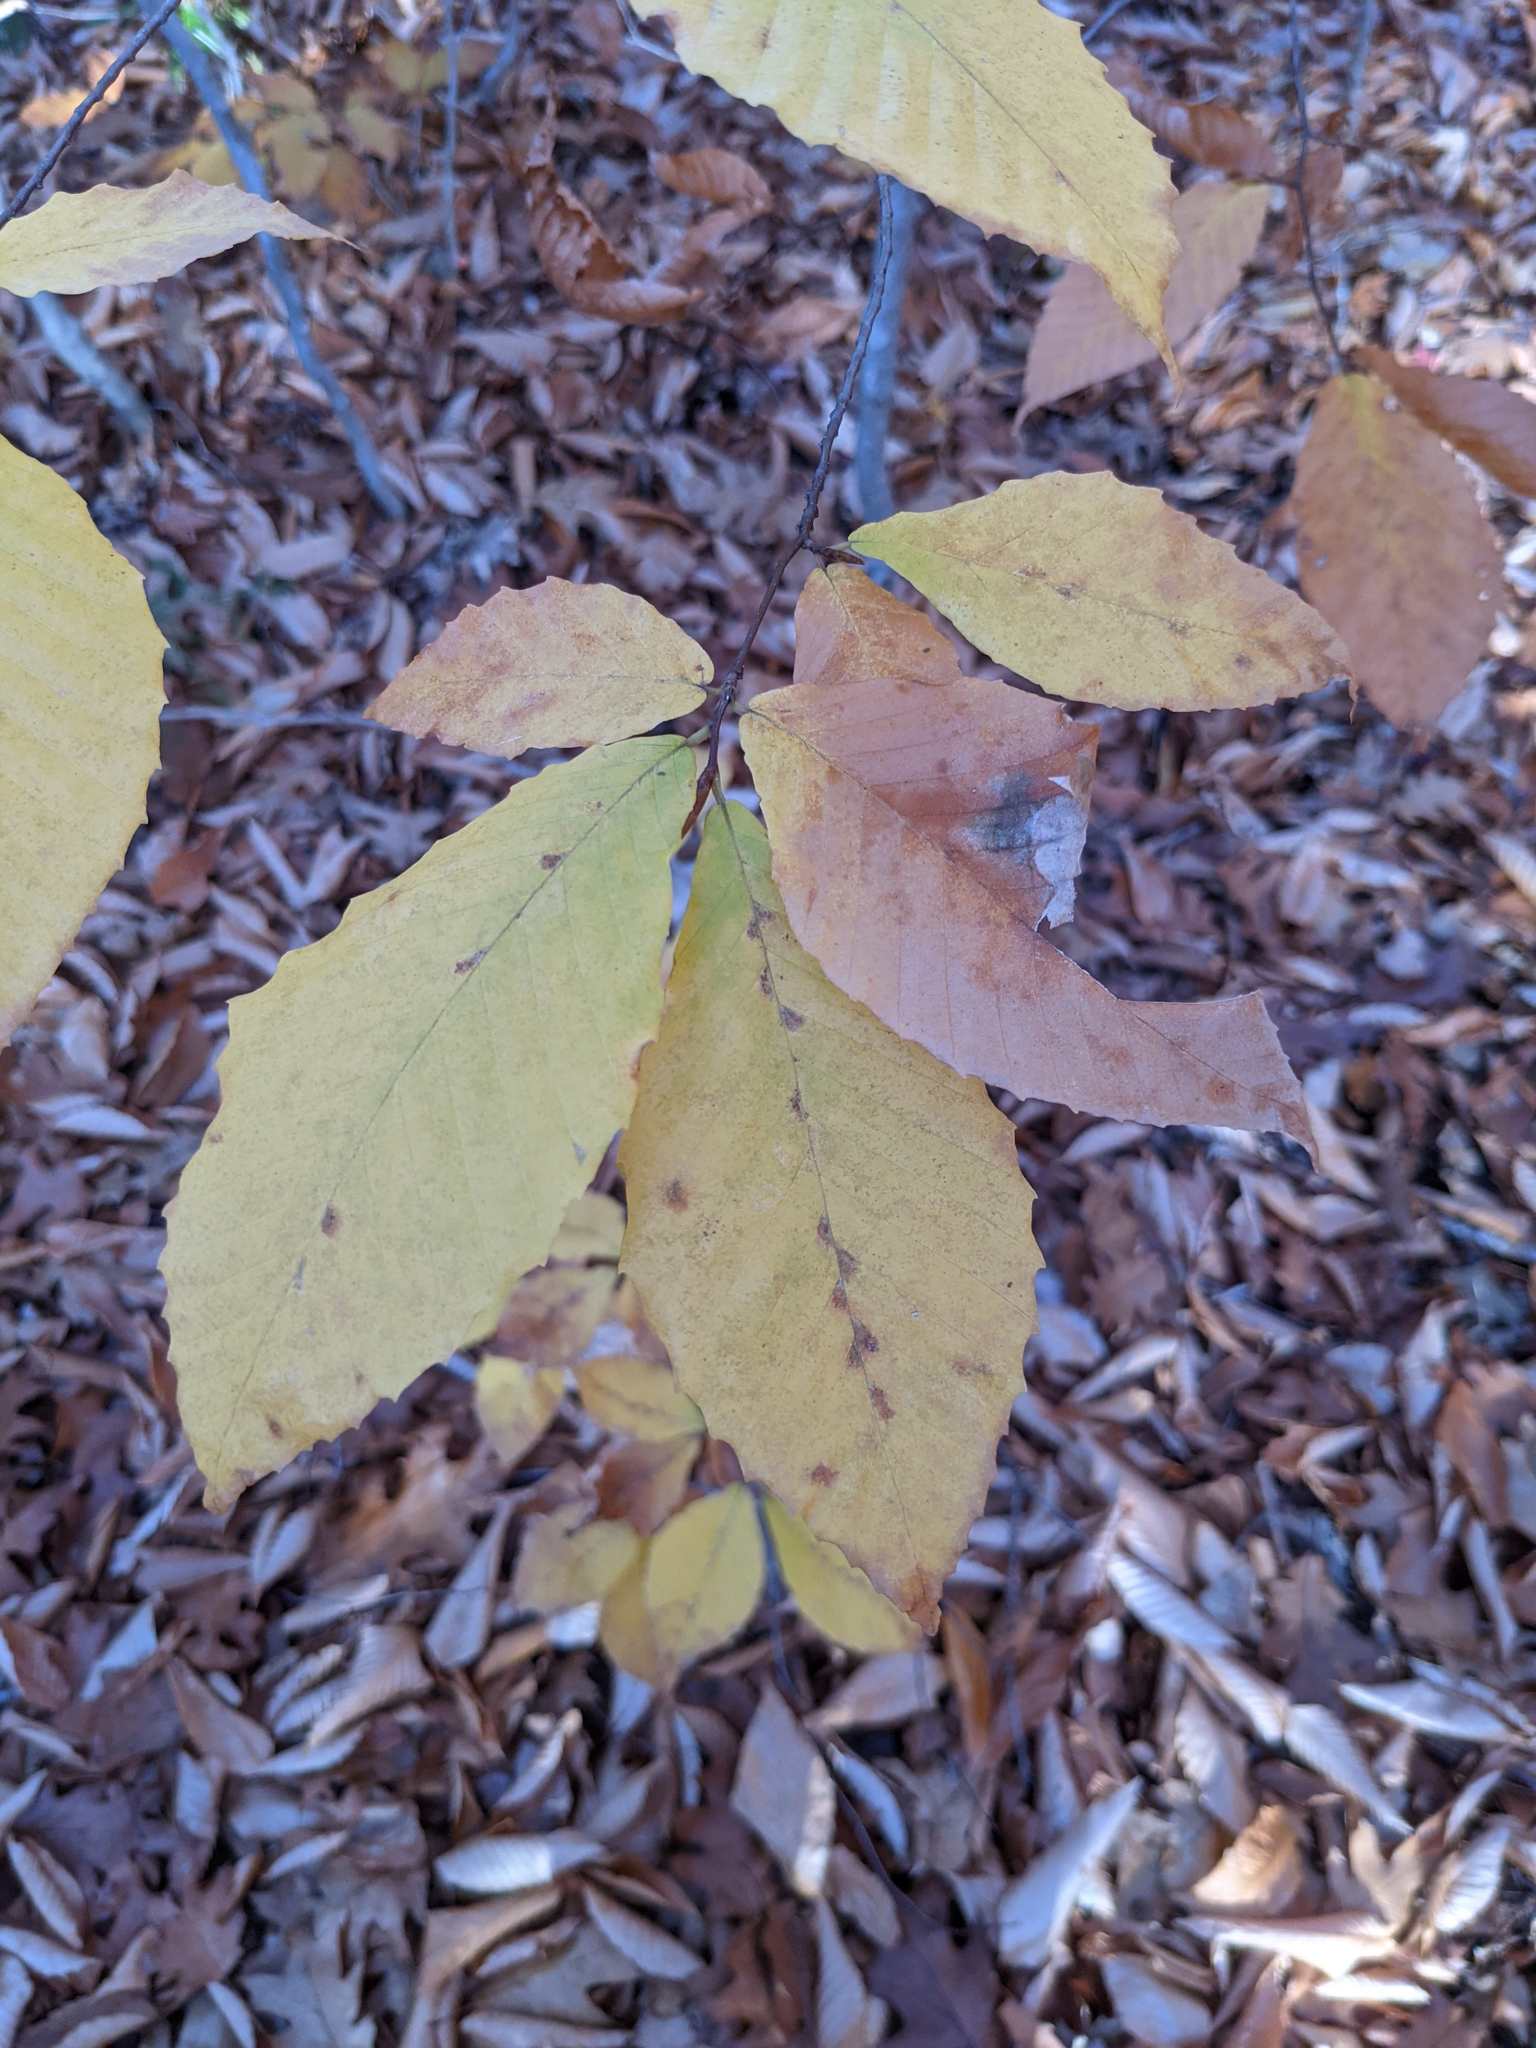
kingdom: Plantae
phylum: Tracheophyta
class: Magnoliopsida
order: Fagales
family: Fagaceae
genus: Fagus
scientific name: Fagus grandifolia
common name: American beech
